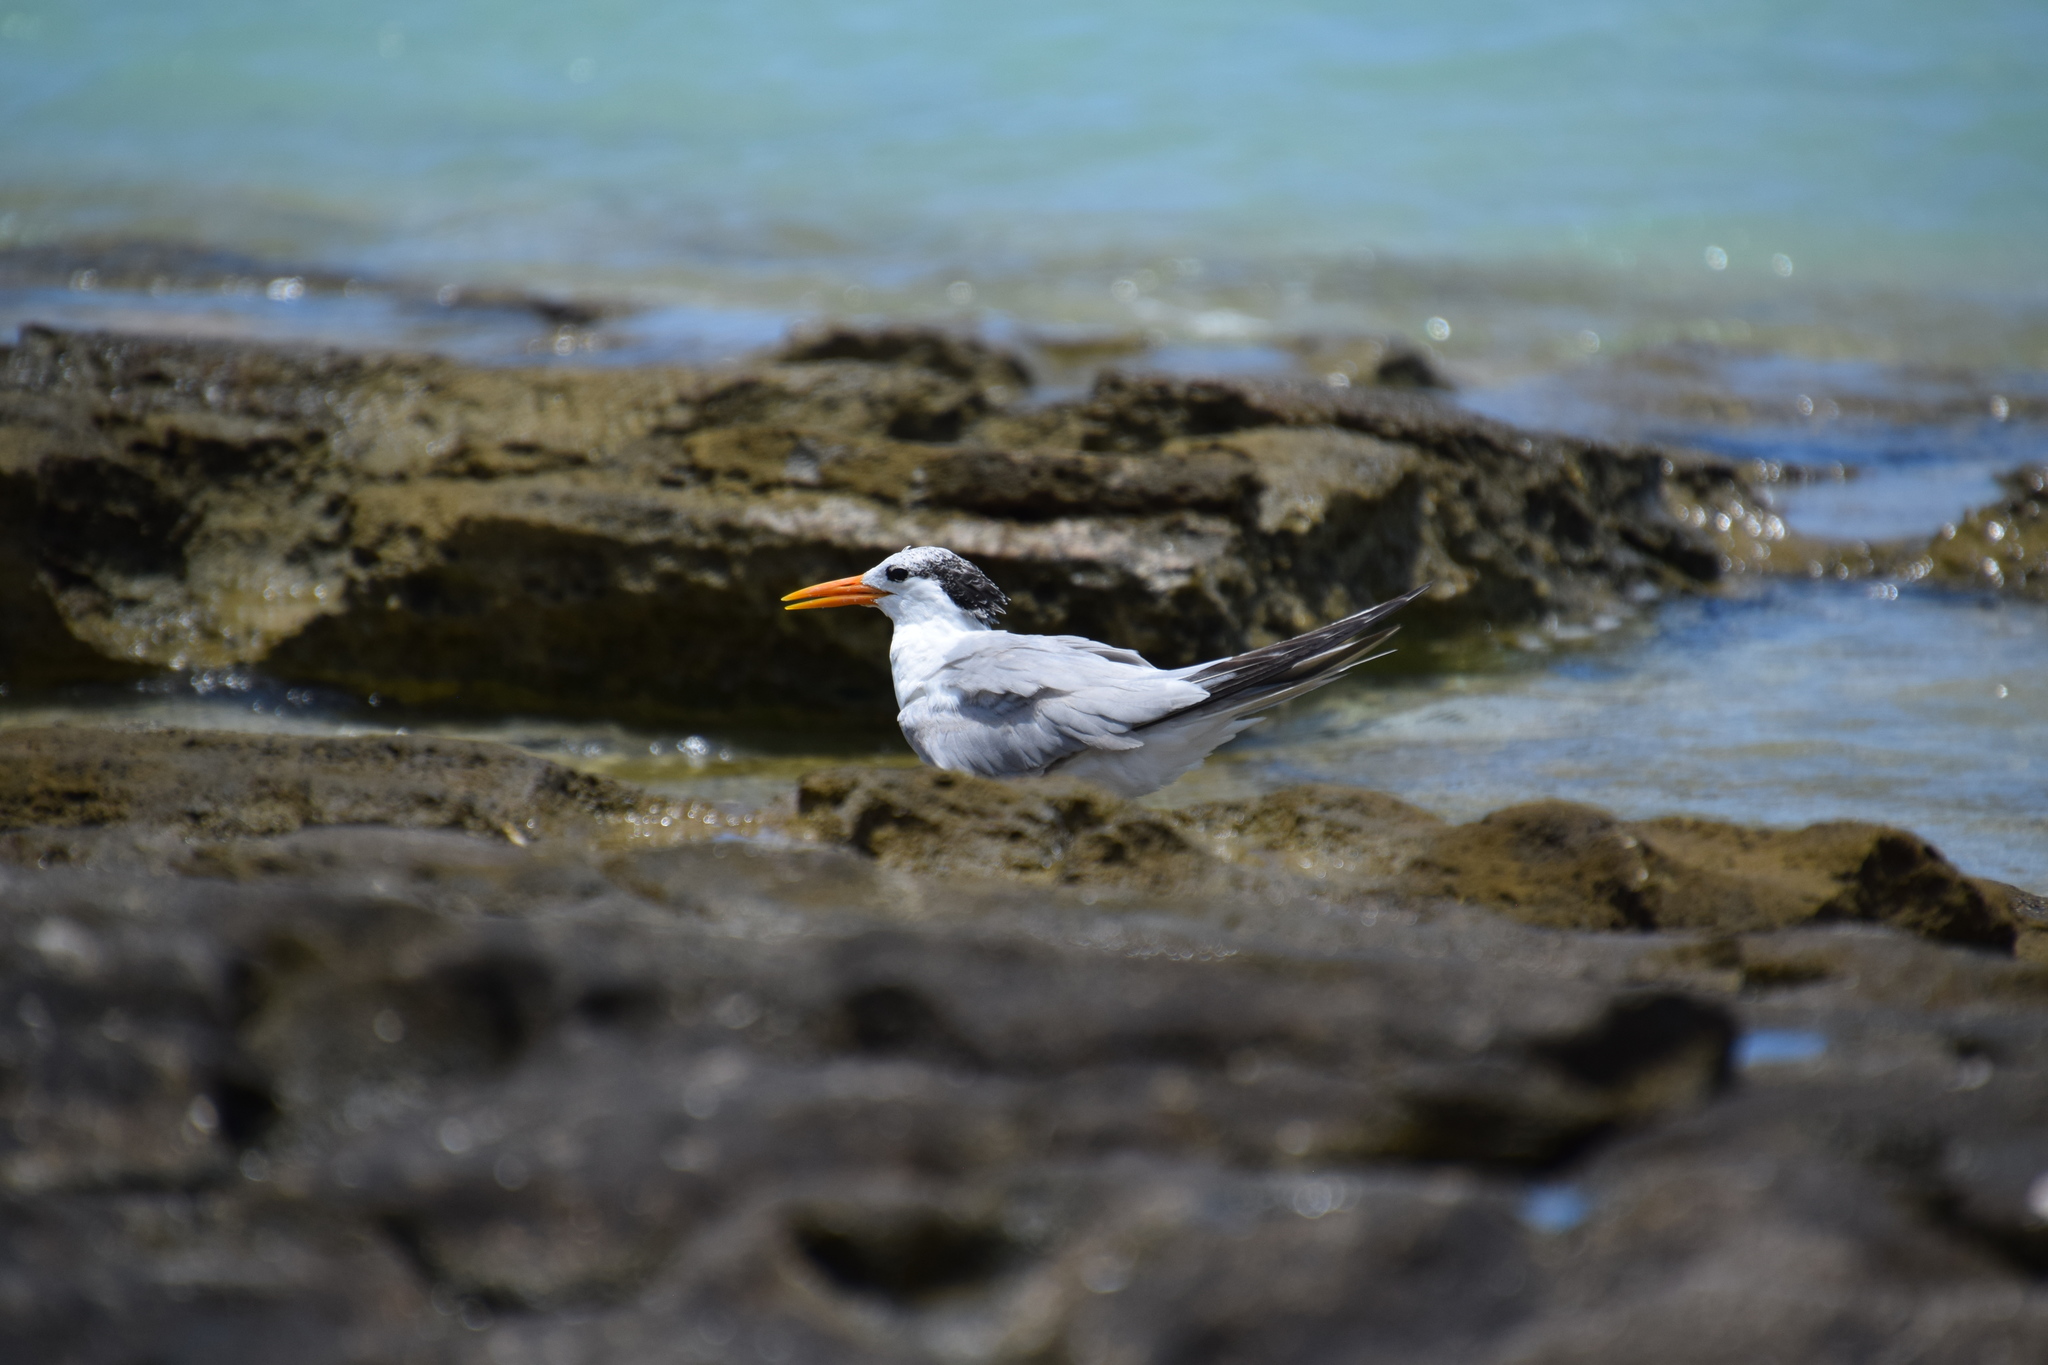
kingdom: Animalia
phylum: Chordata
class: Aves
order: Charadriiformes
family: Laridae
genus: Thalasseus
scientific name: Thalasseus bengalensis
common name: Lesser crested tern
